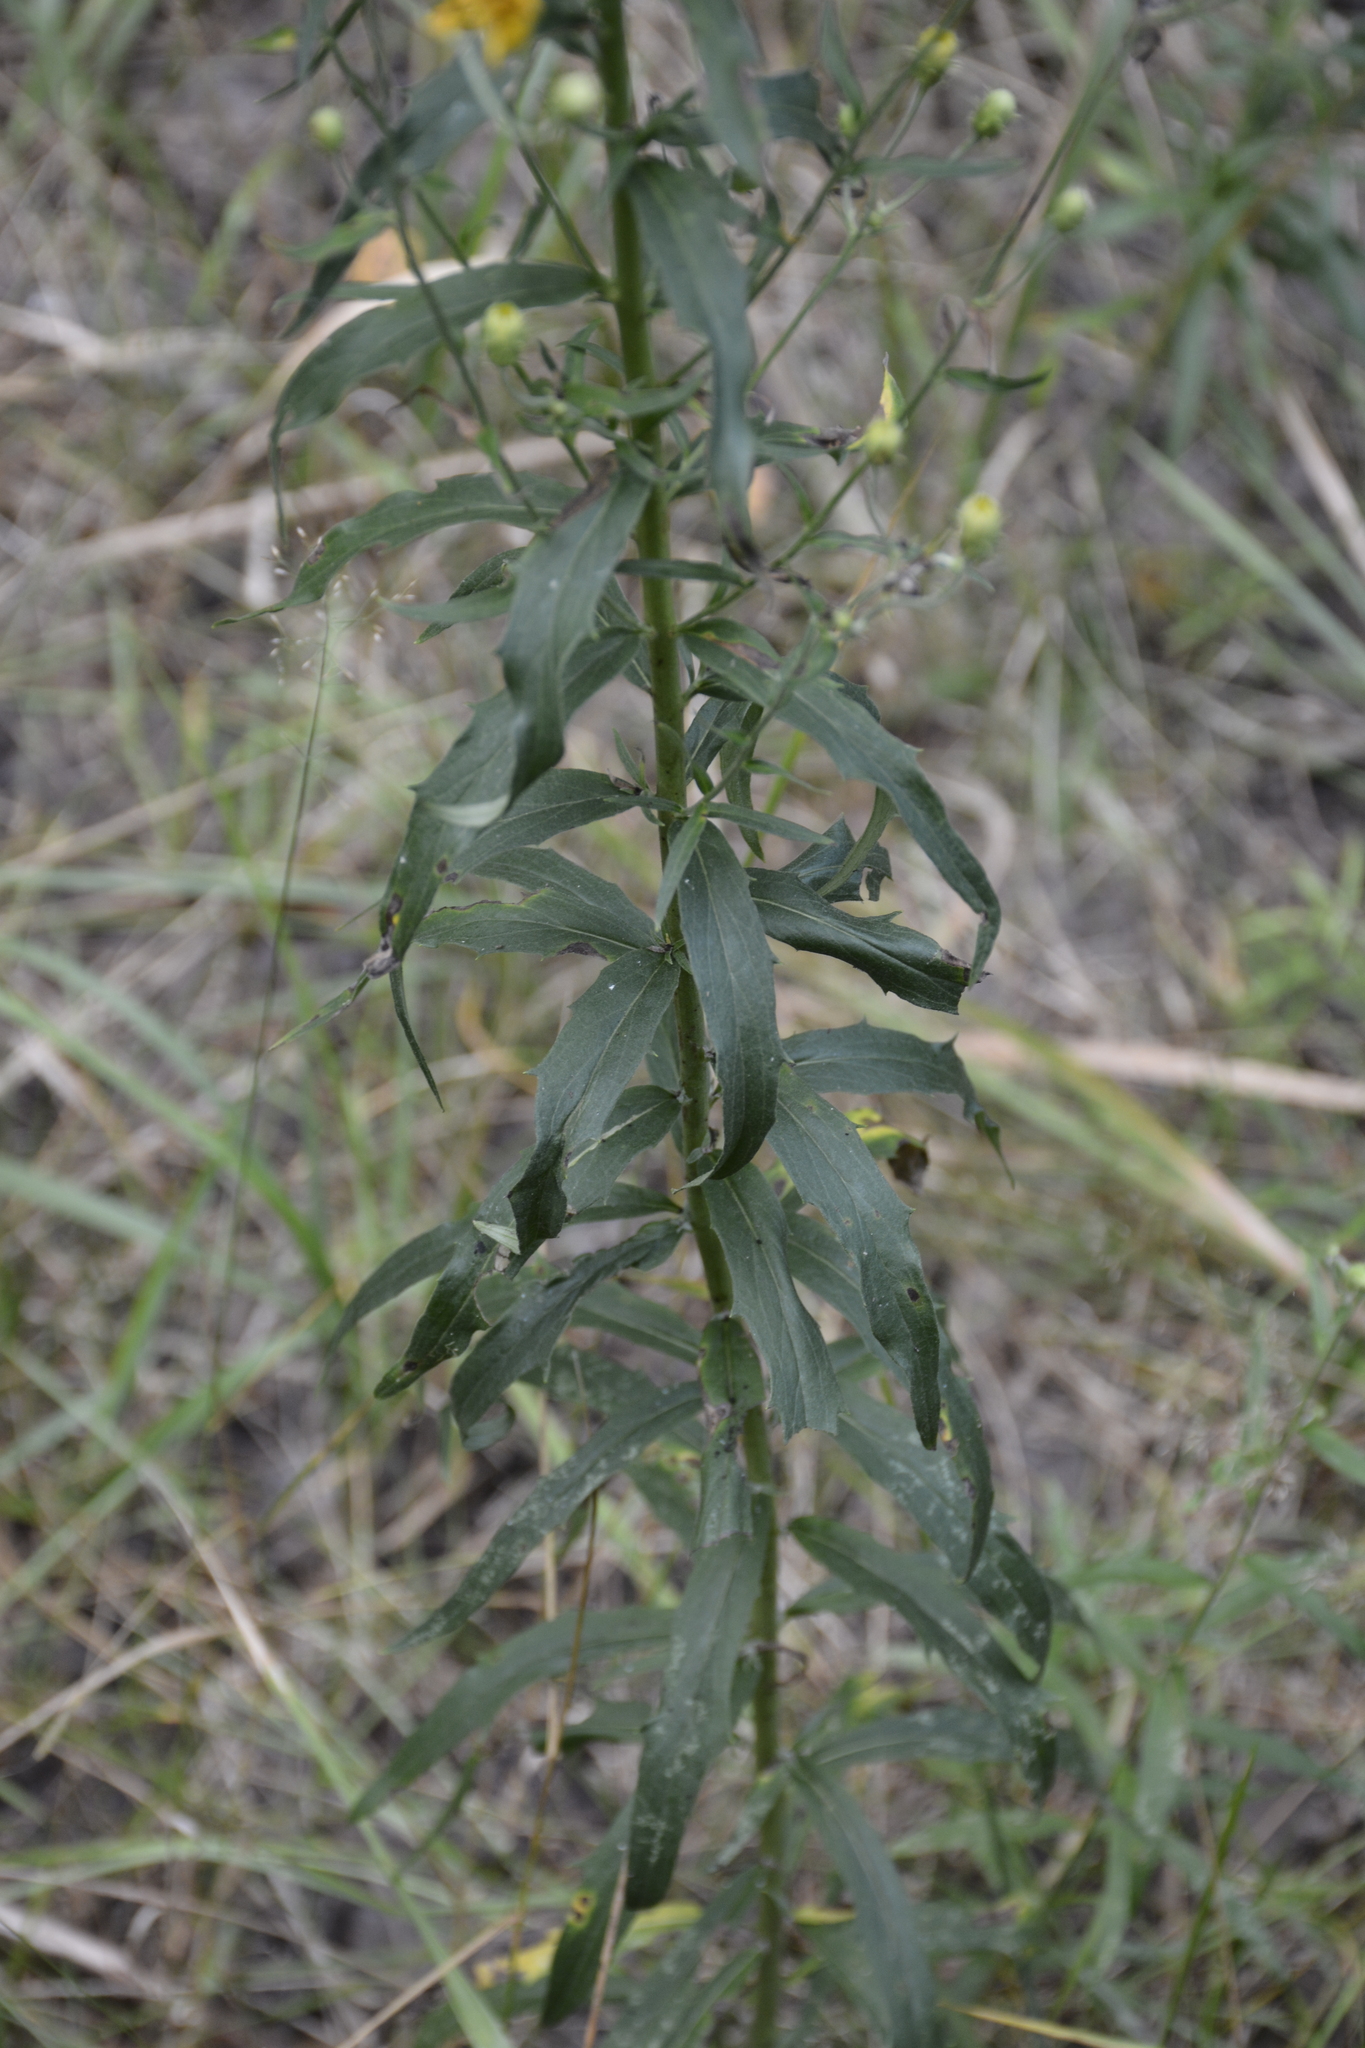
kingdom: Plantae
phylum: Tracheophyta
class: Magnoliopsida
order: Asterales
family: Asteraceae
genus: Hieracium
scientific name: Hieracium umbellatum
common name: Northern hawkweed
